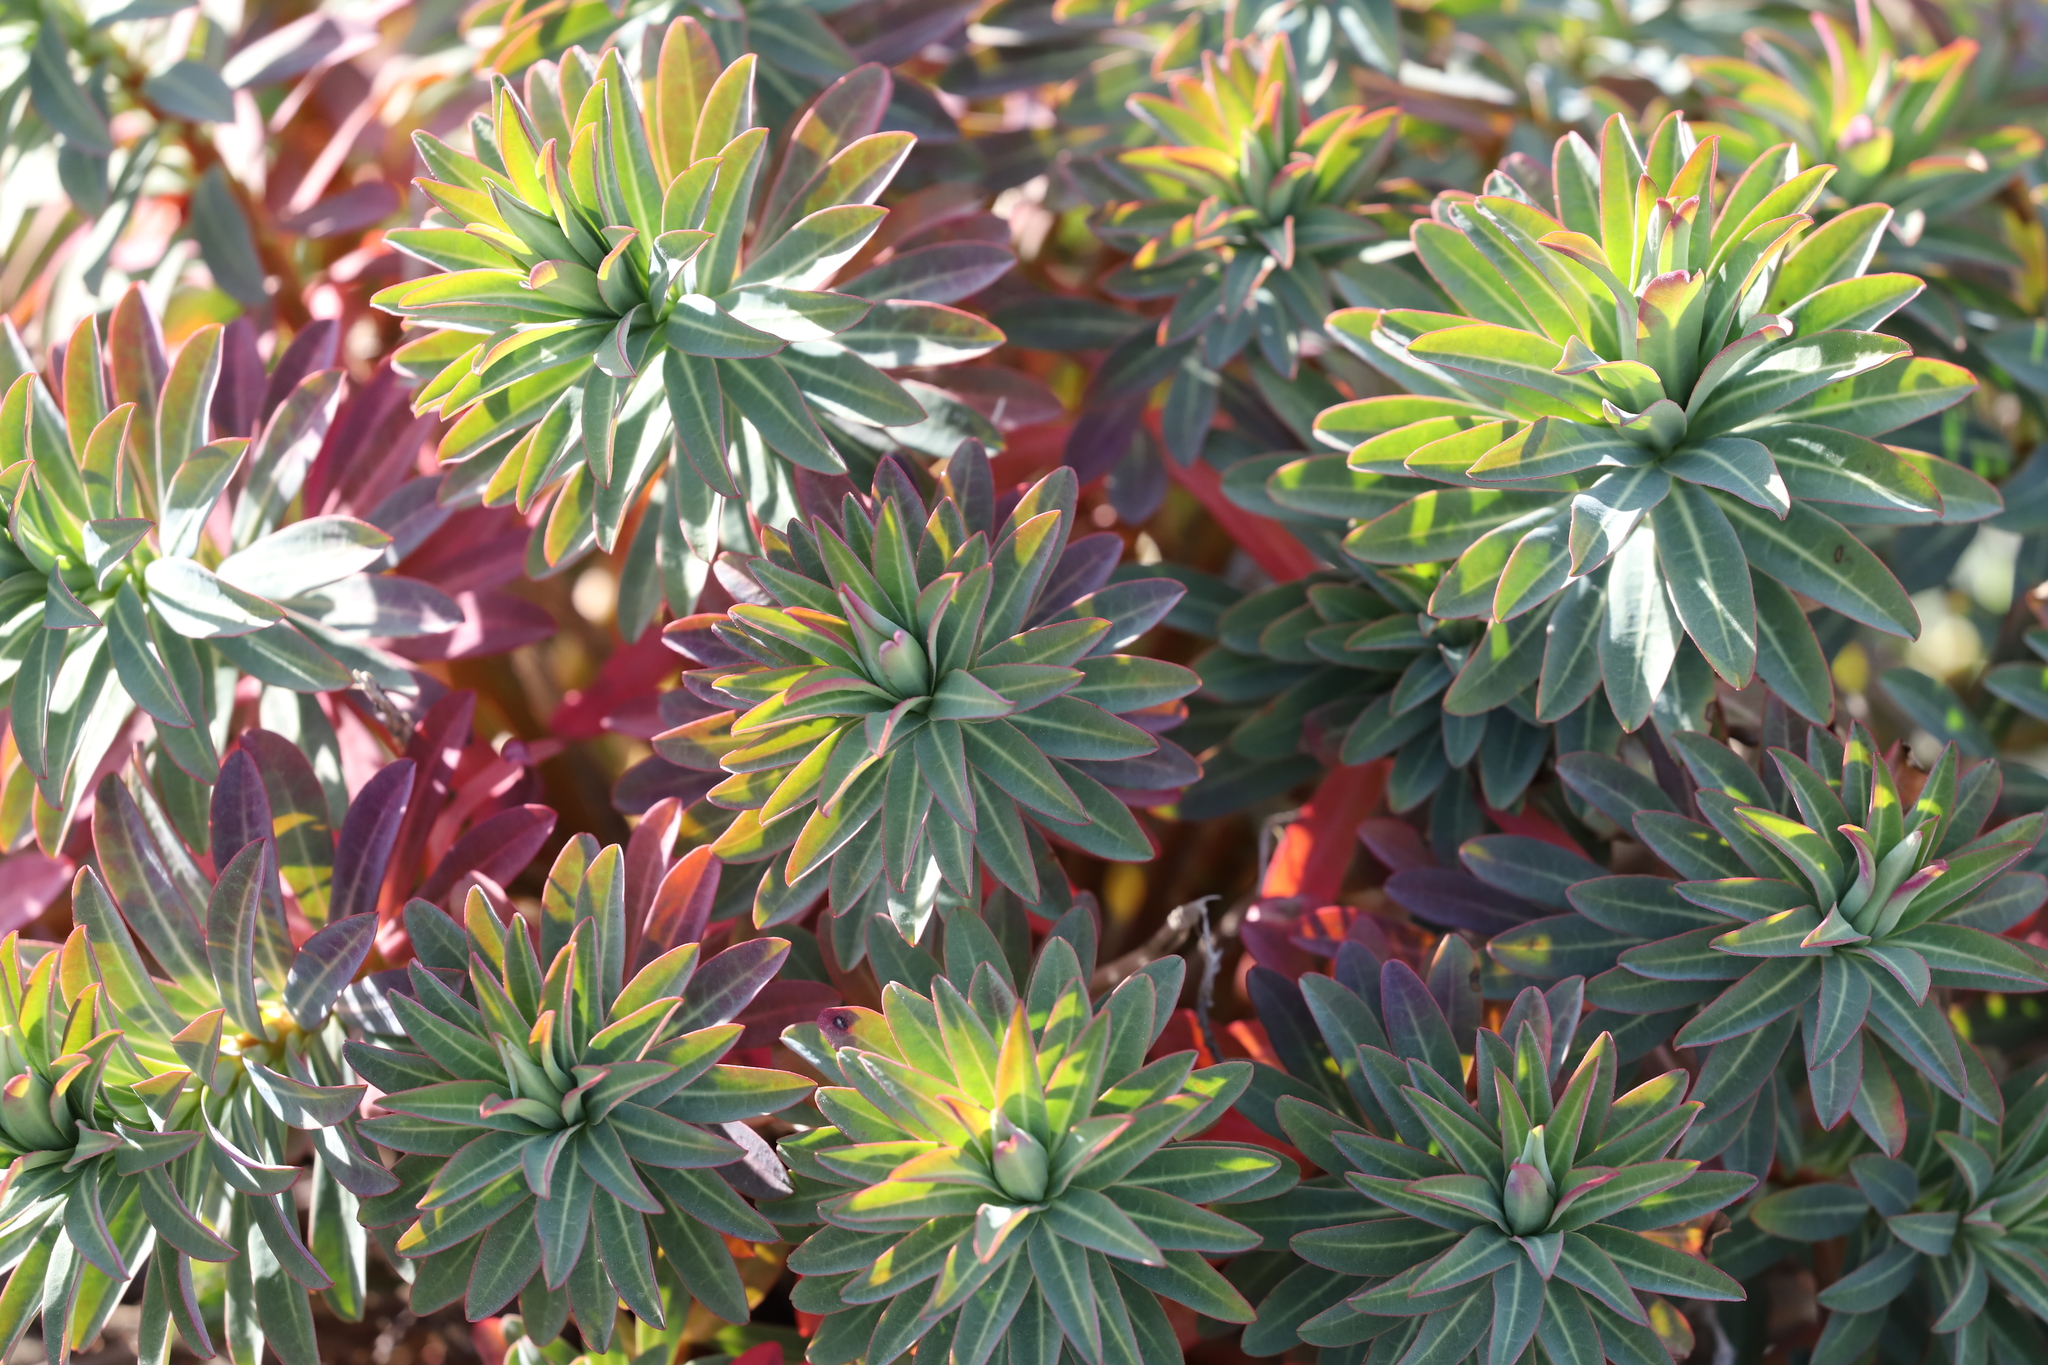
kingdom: Plantae
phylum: Tracheophyta
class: Magnoliopsida
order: Malpighiales
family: Euphorbiaceae
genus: Euphorbia
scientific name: Euphorbia jolkinii
